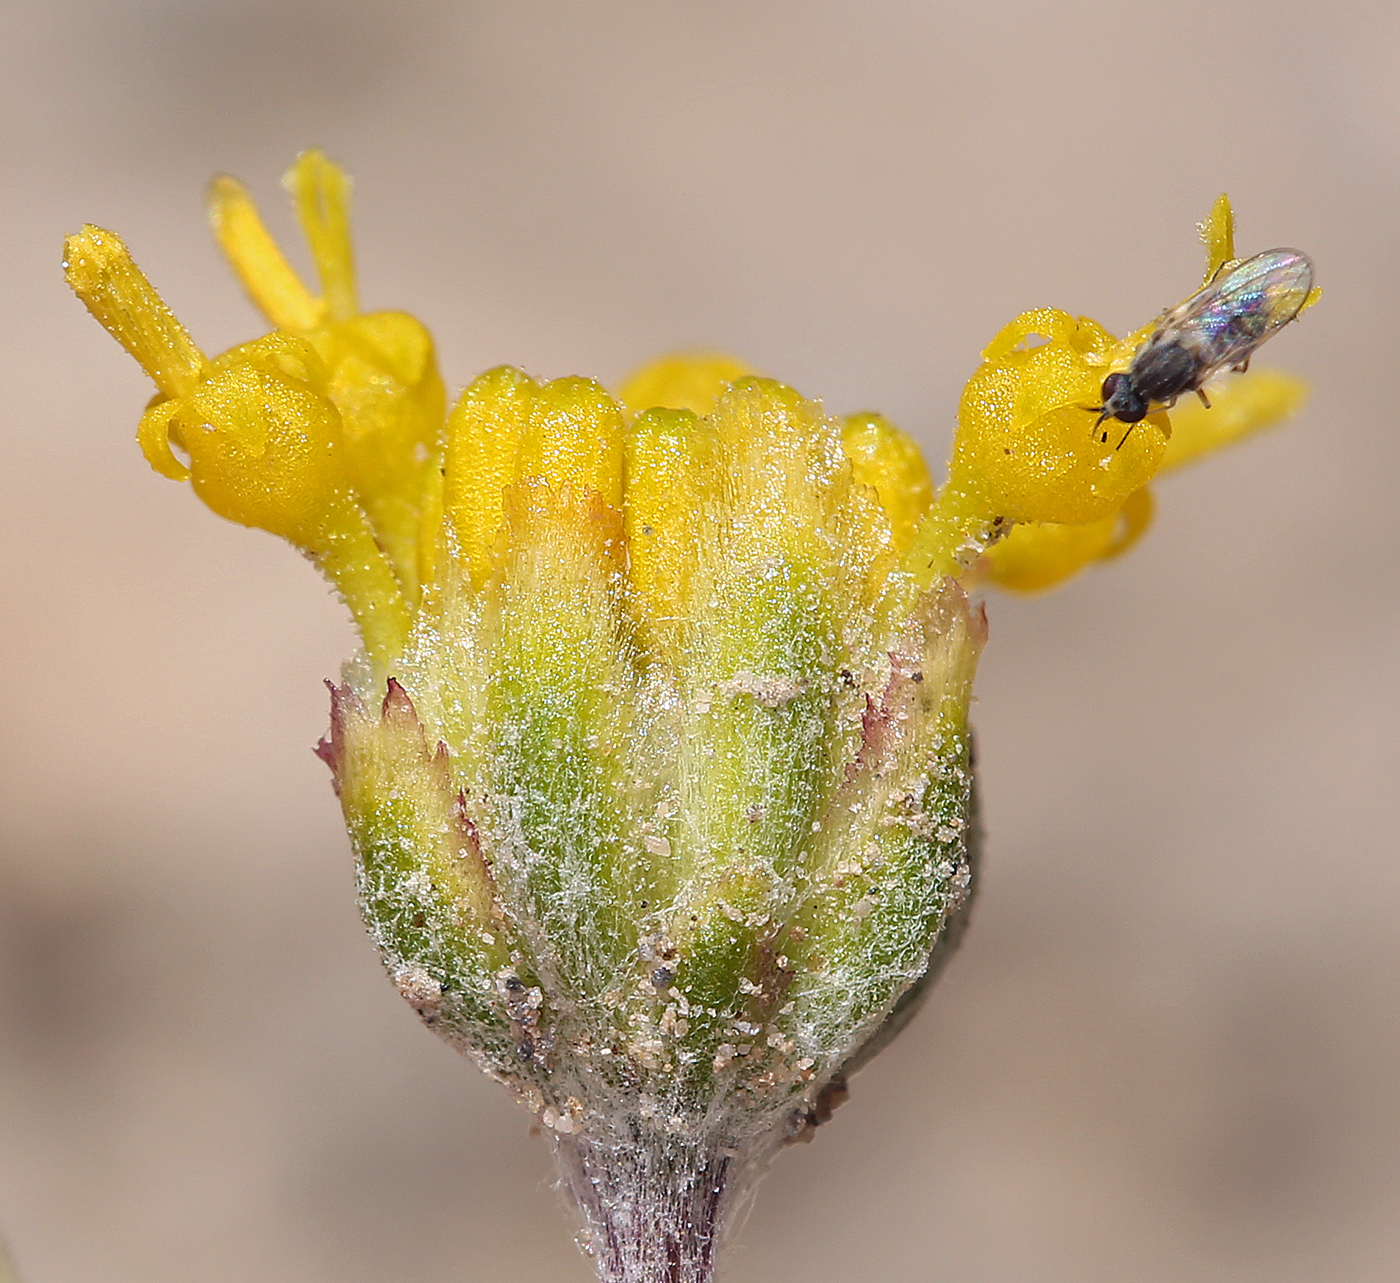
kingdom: Plantae
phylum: Tracheophyta
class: Magnoliopsida
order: Asterales
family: Asteraceae
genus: Hymenopappus
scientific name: Hymenopappus filifolius
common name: Columbia cutleaf
